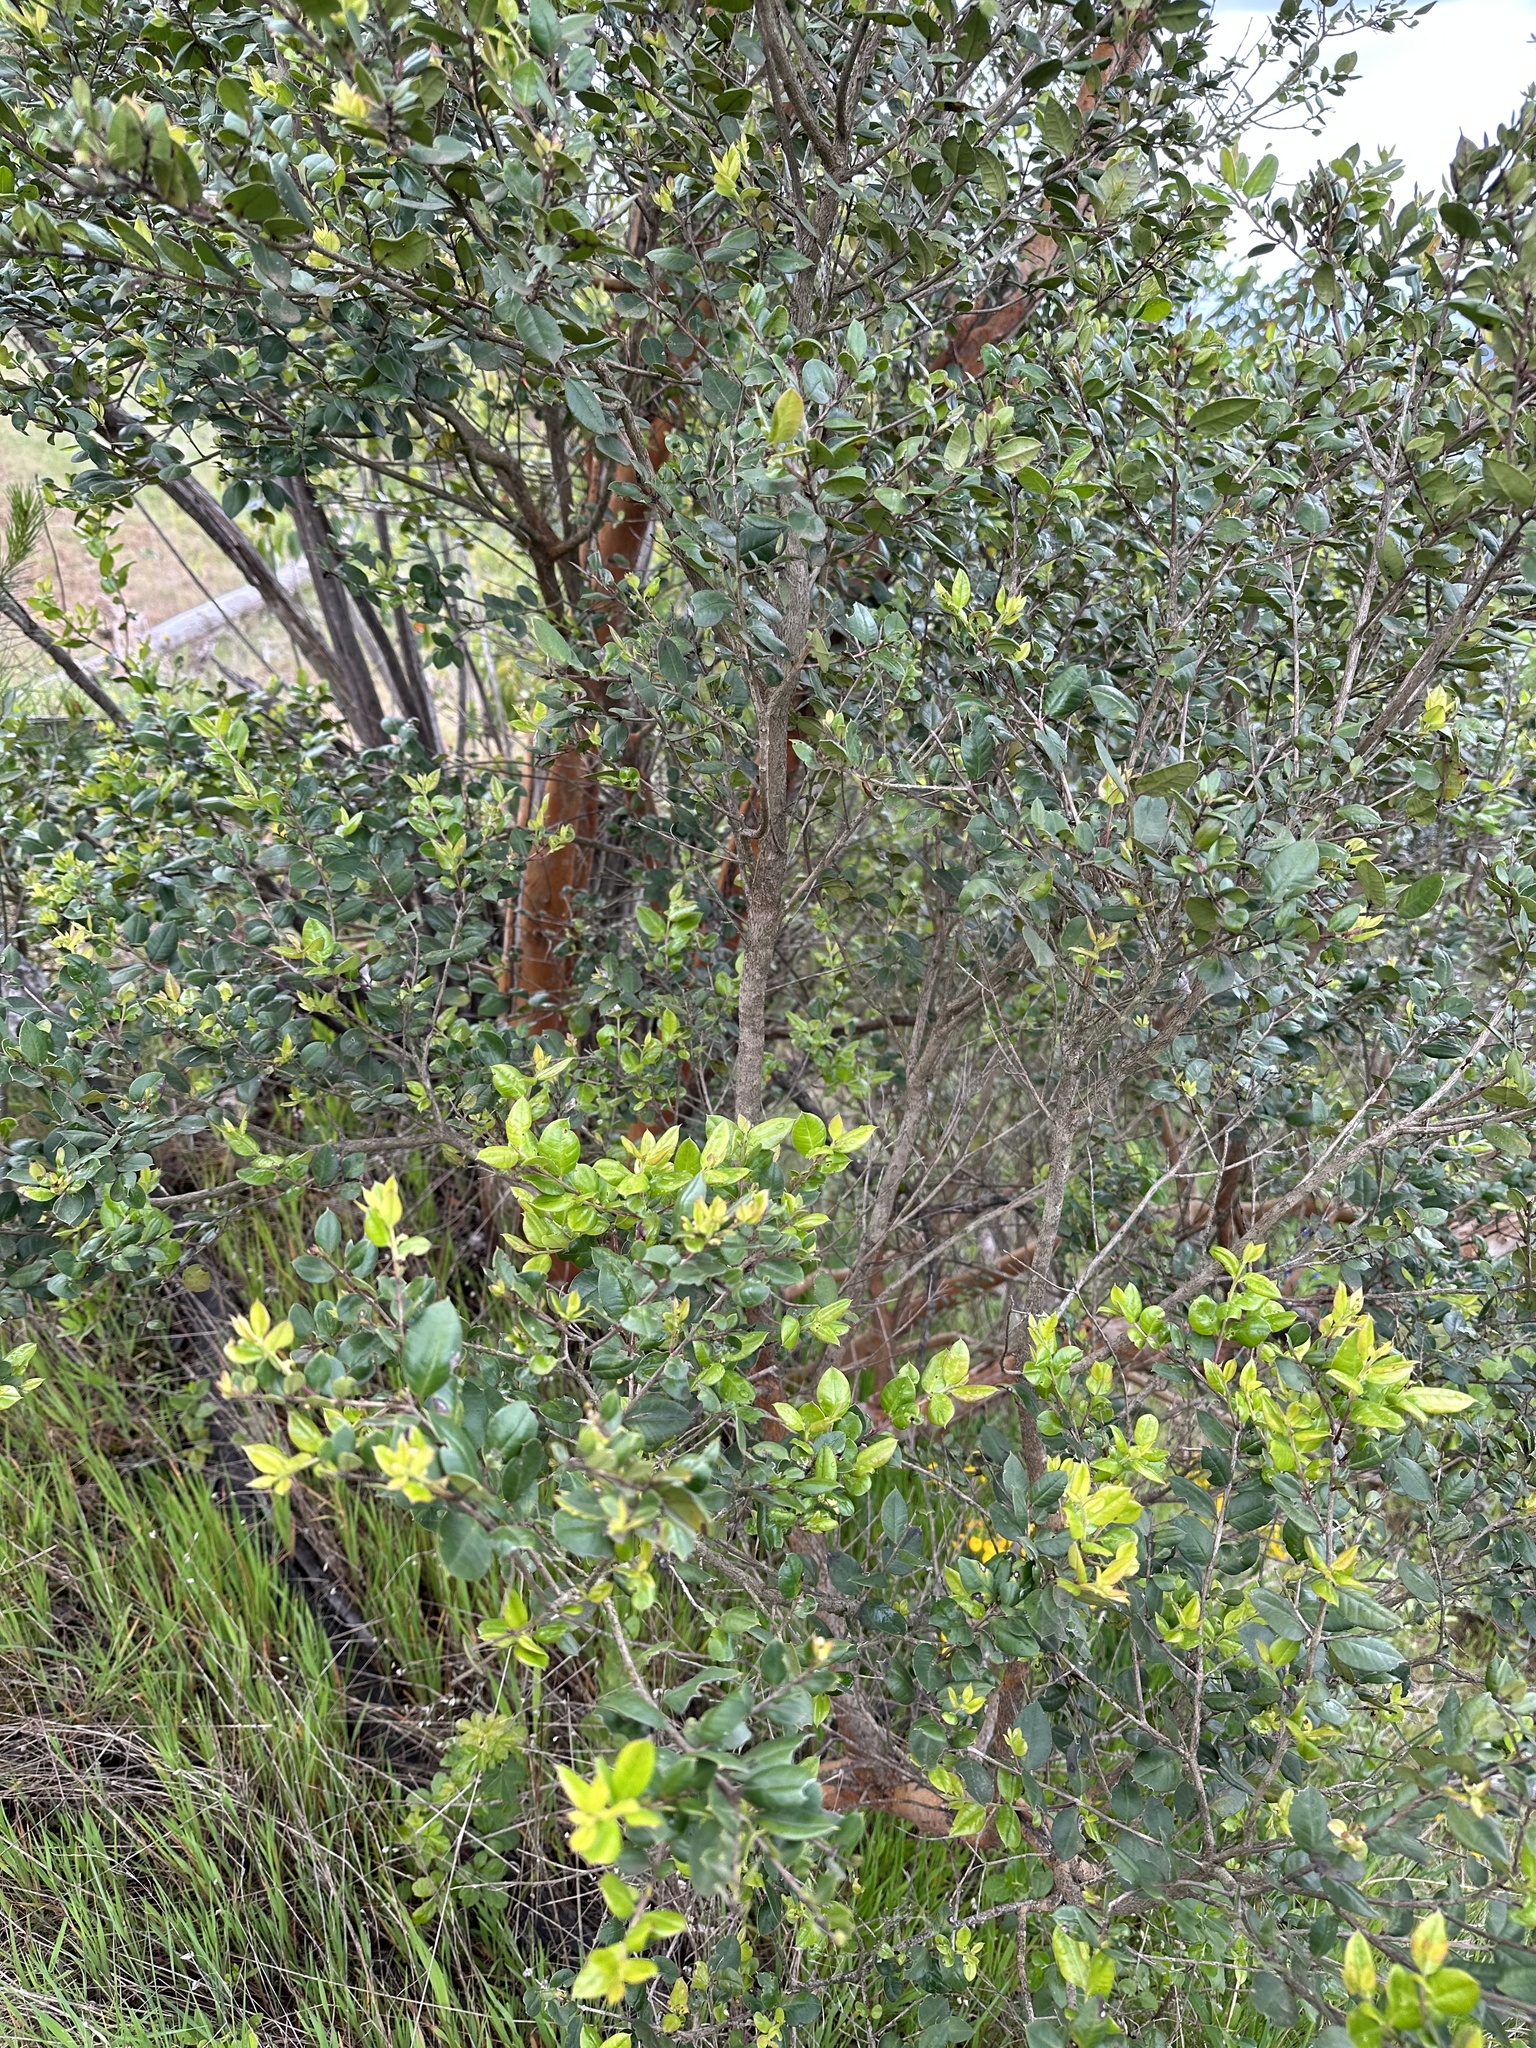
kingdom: Plantae
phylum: Tracheophyta
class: Magnoliopsida
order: Myrtales
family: Myrtaceae
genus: Luma
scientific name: Luma apiculata
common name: Chilean myrtle
